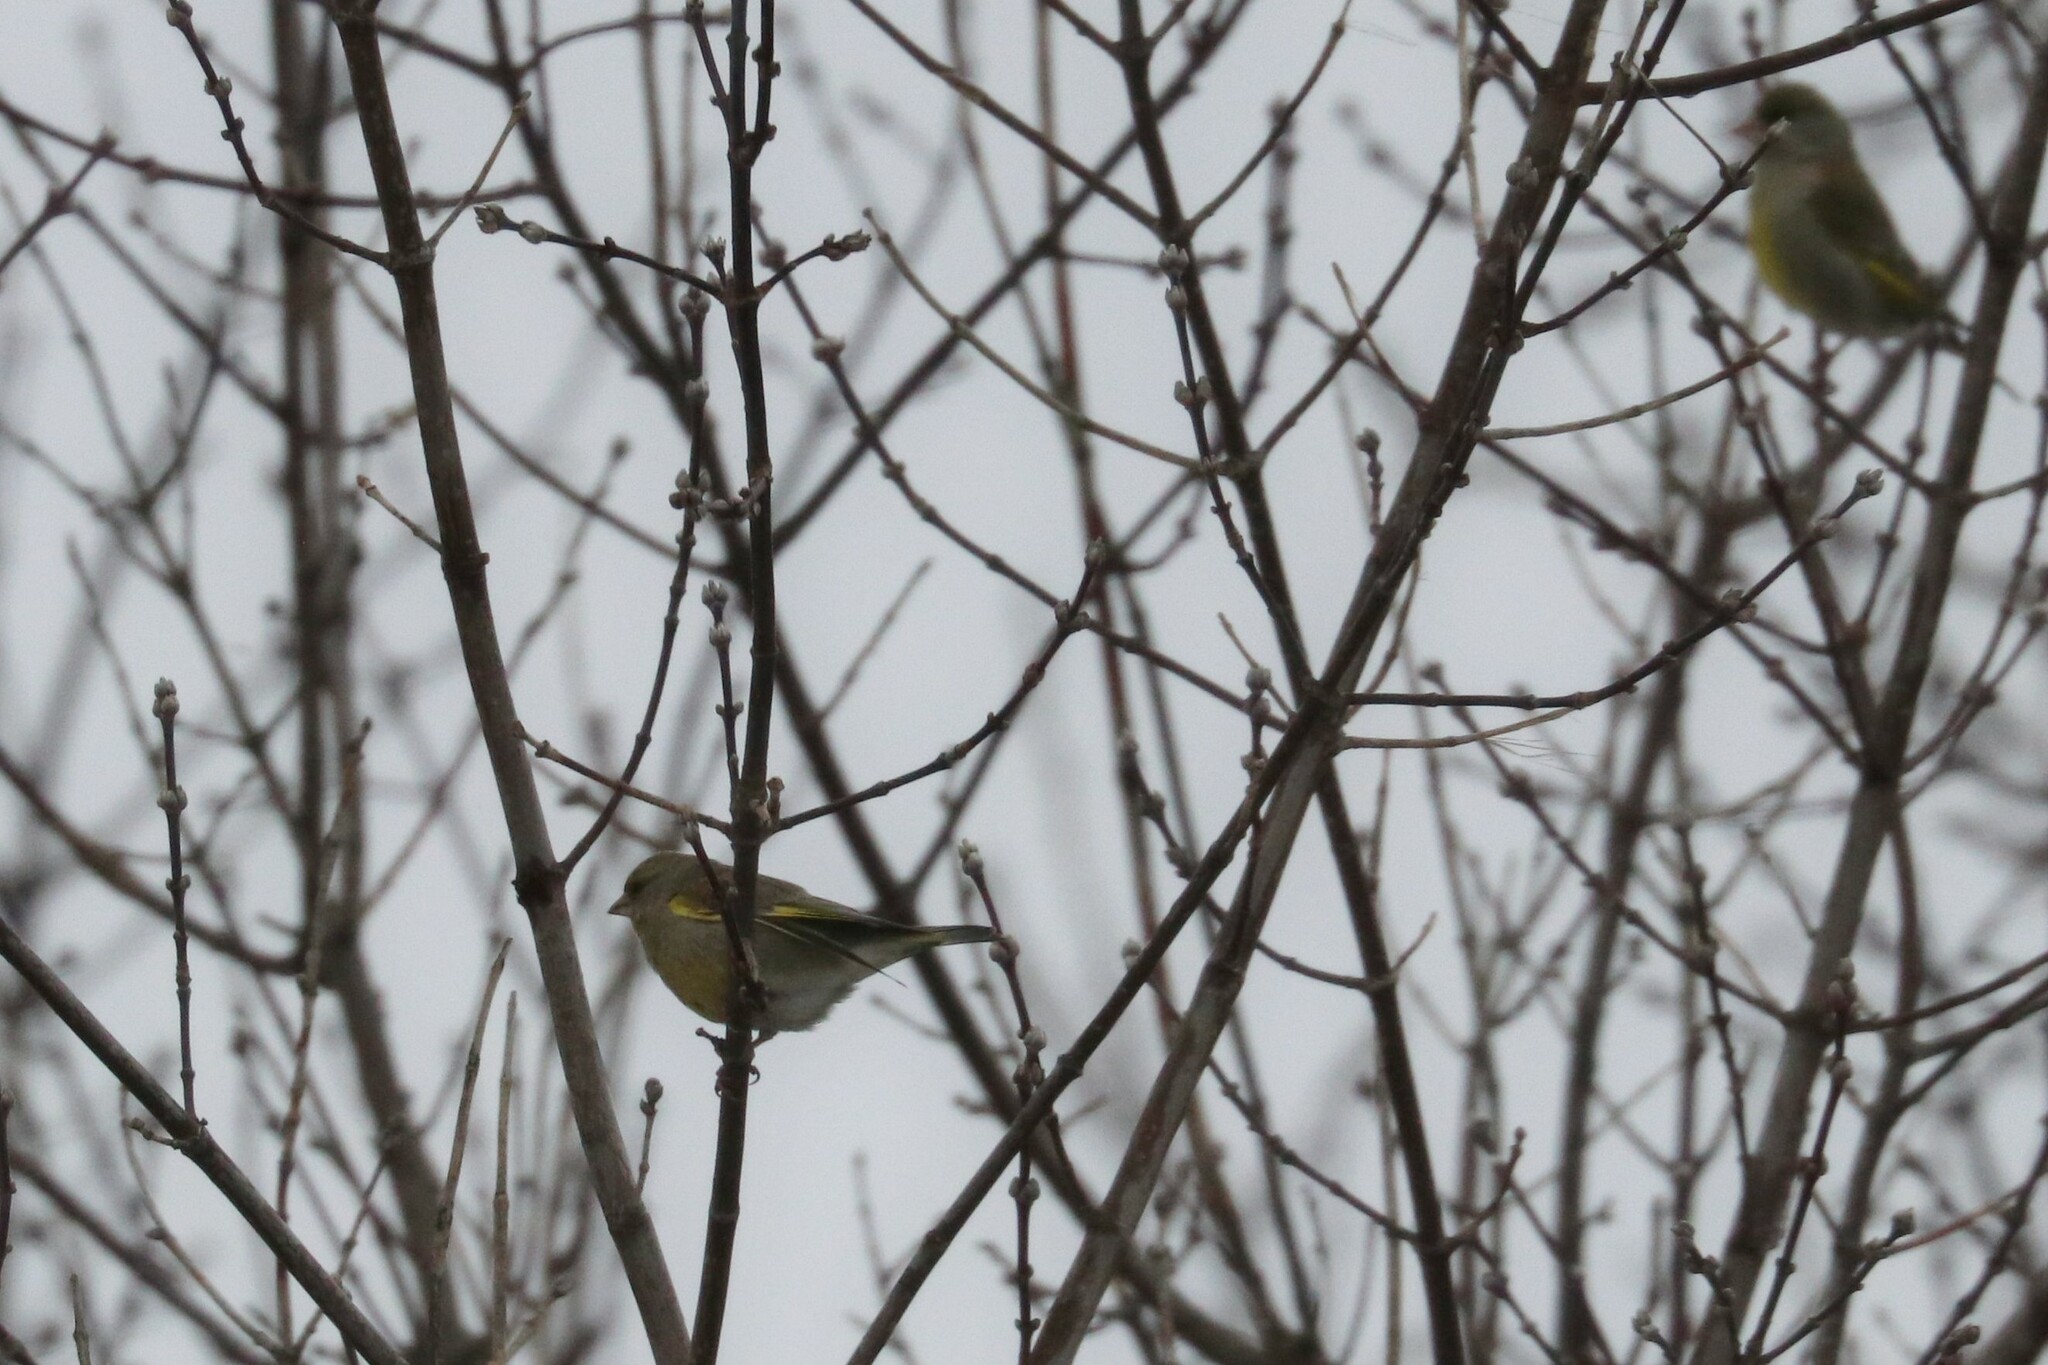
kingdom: Plantae
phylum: Tracheophyta
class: Liliopsida
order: Poales
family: Poaceae
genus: Chloris
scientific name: Chloris chloris
